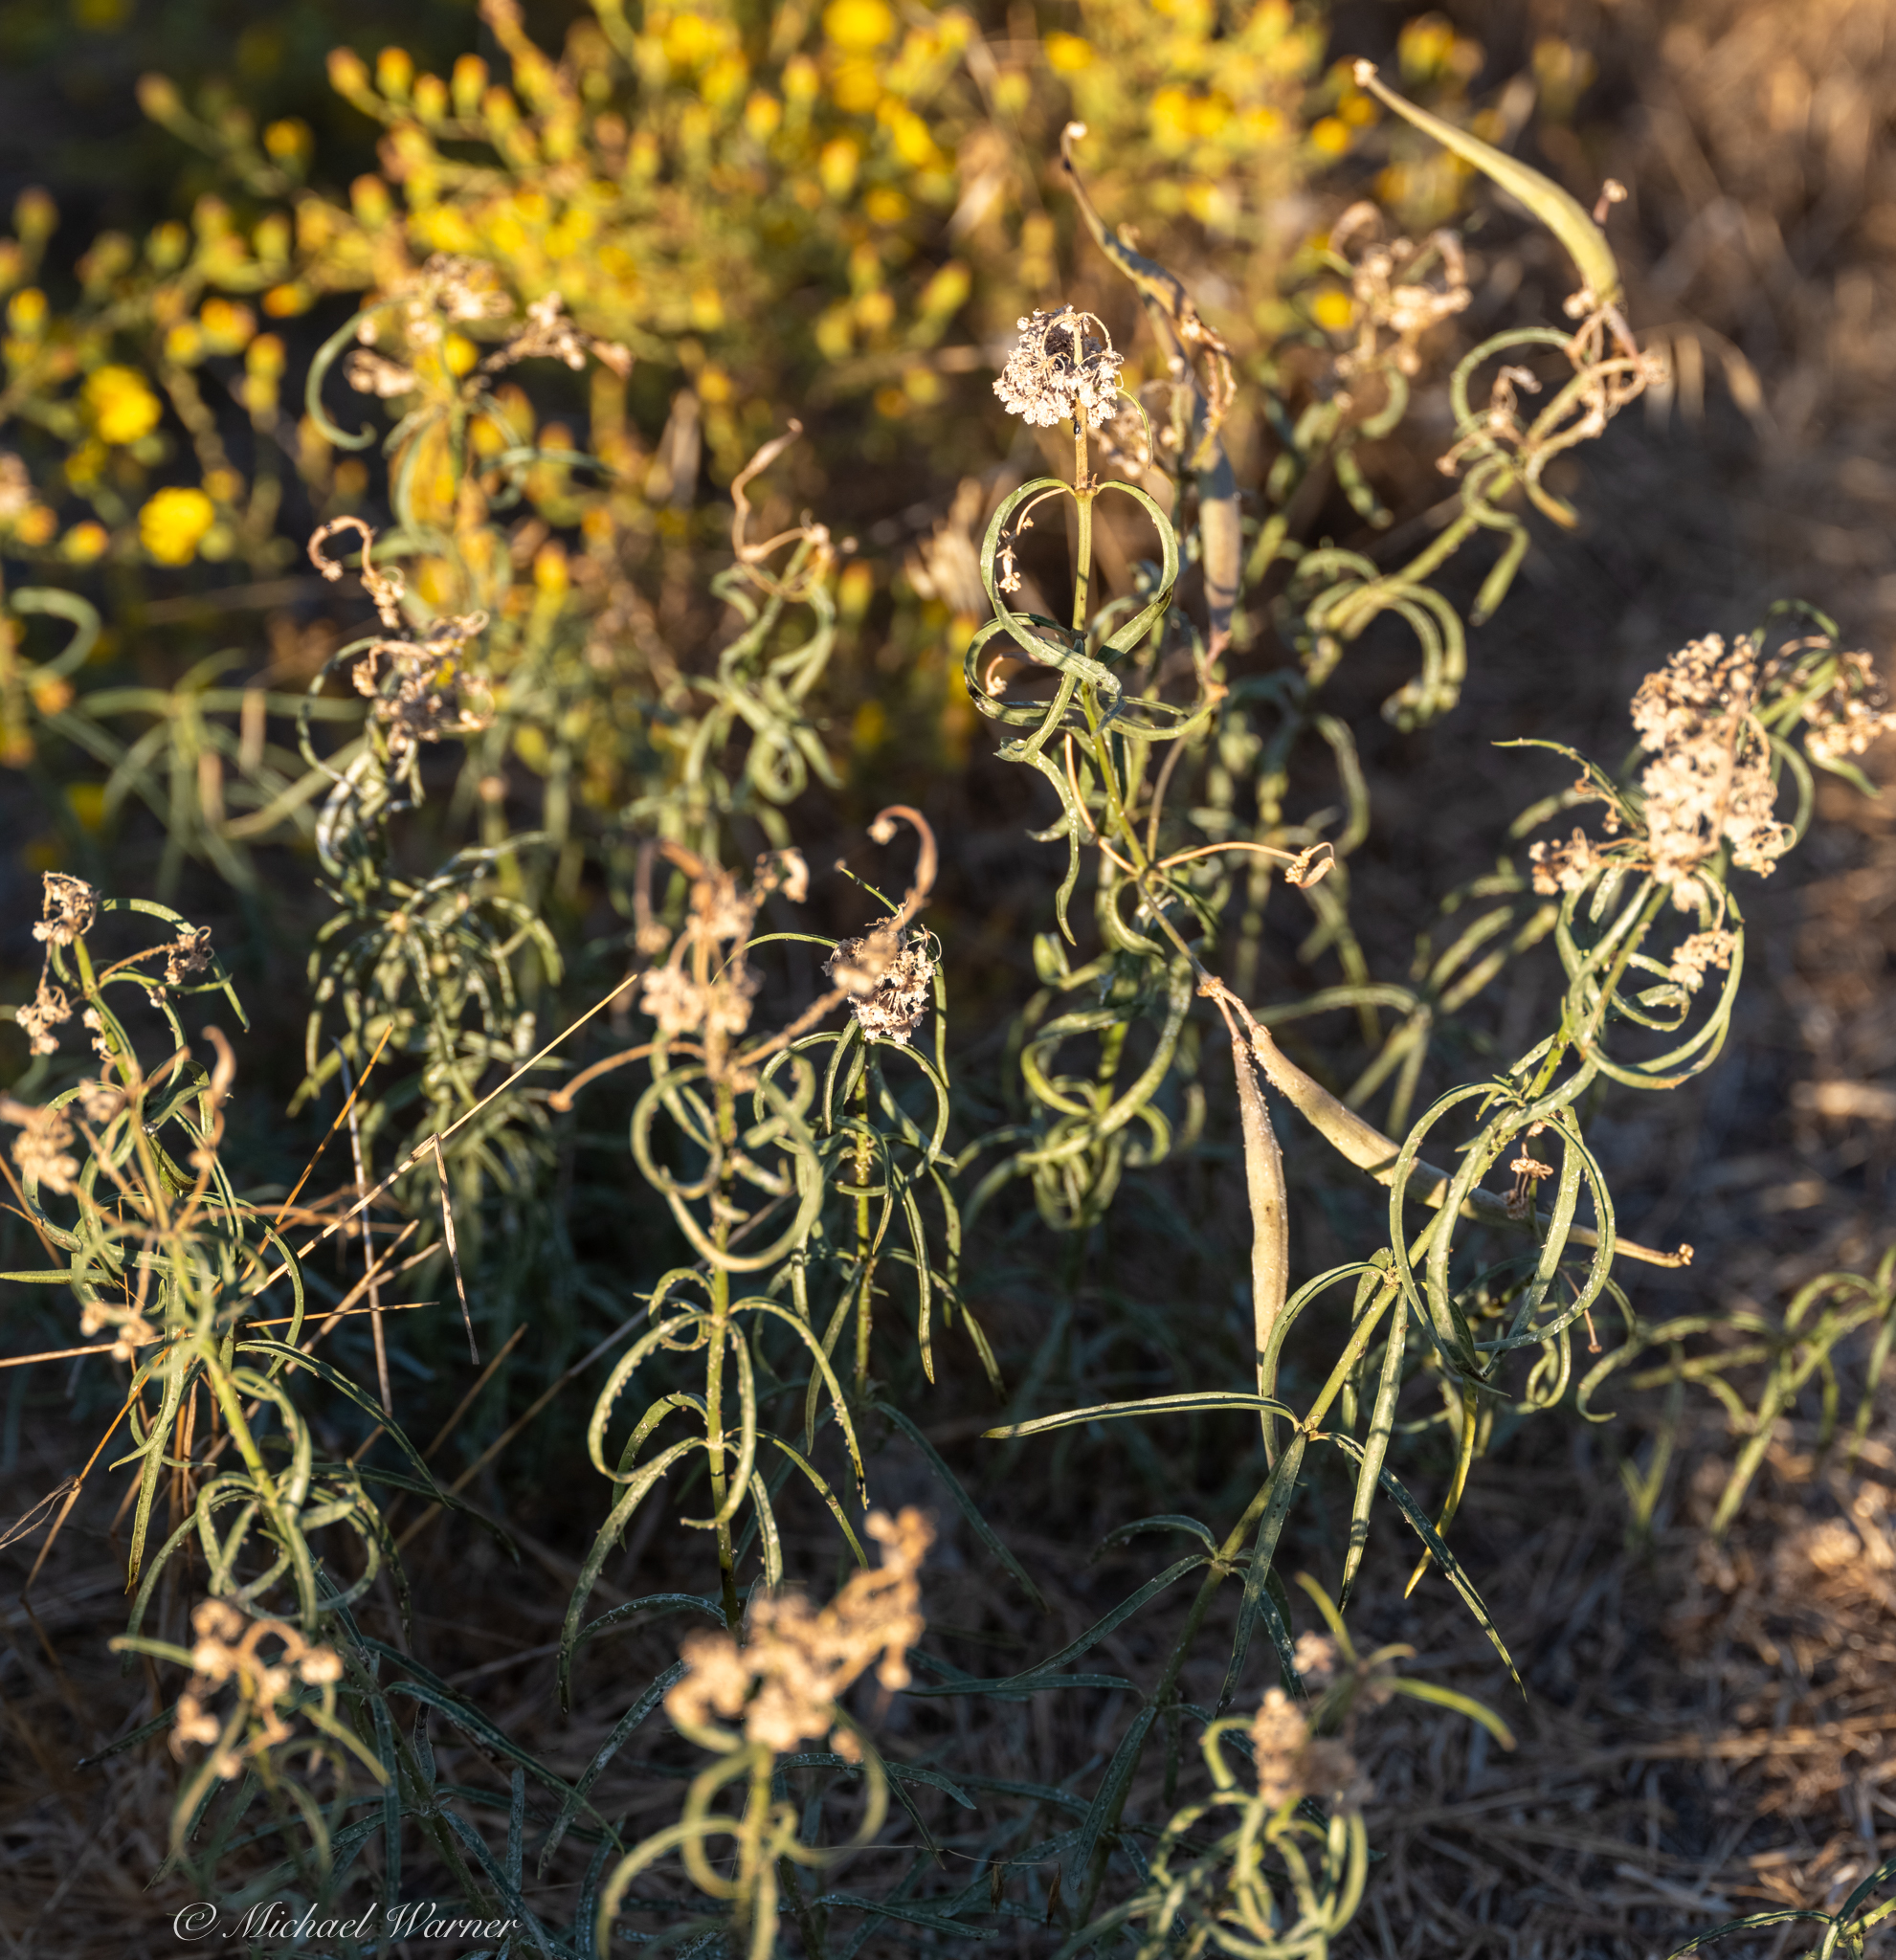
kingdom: Plantae
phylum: Tracheophyta
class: Magnoliopsida
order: Gentianales
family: Apocynaceae
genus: Asclepias
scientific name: Asclepias fascicularis
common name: Mexican milkweed
